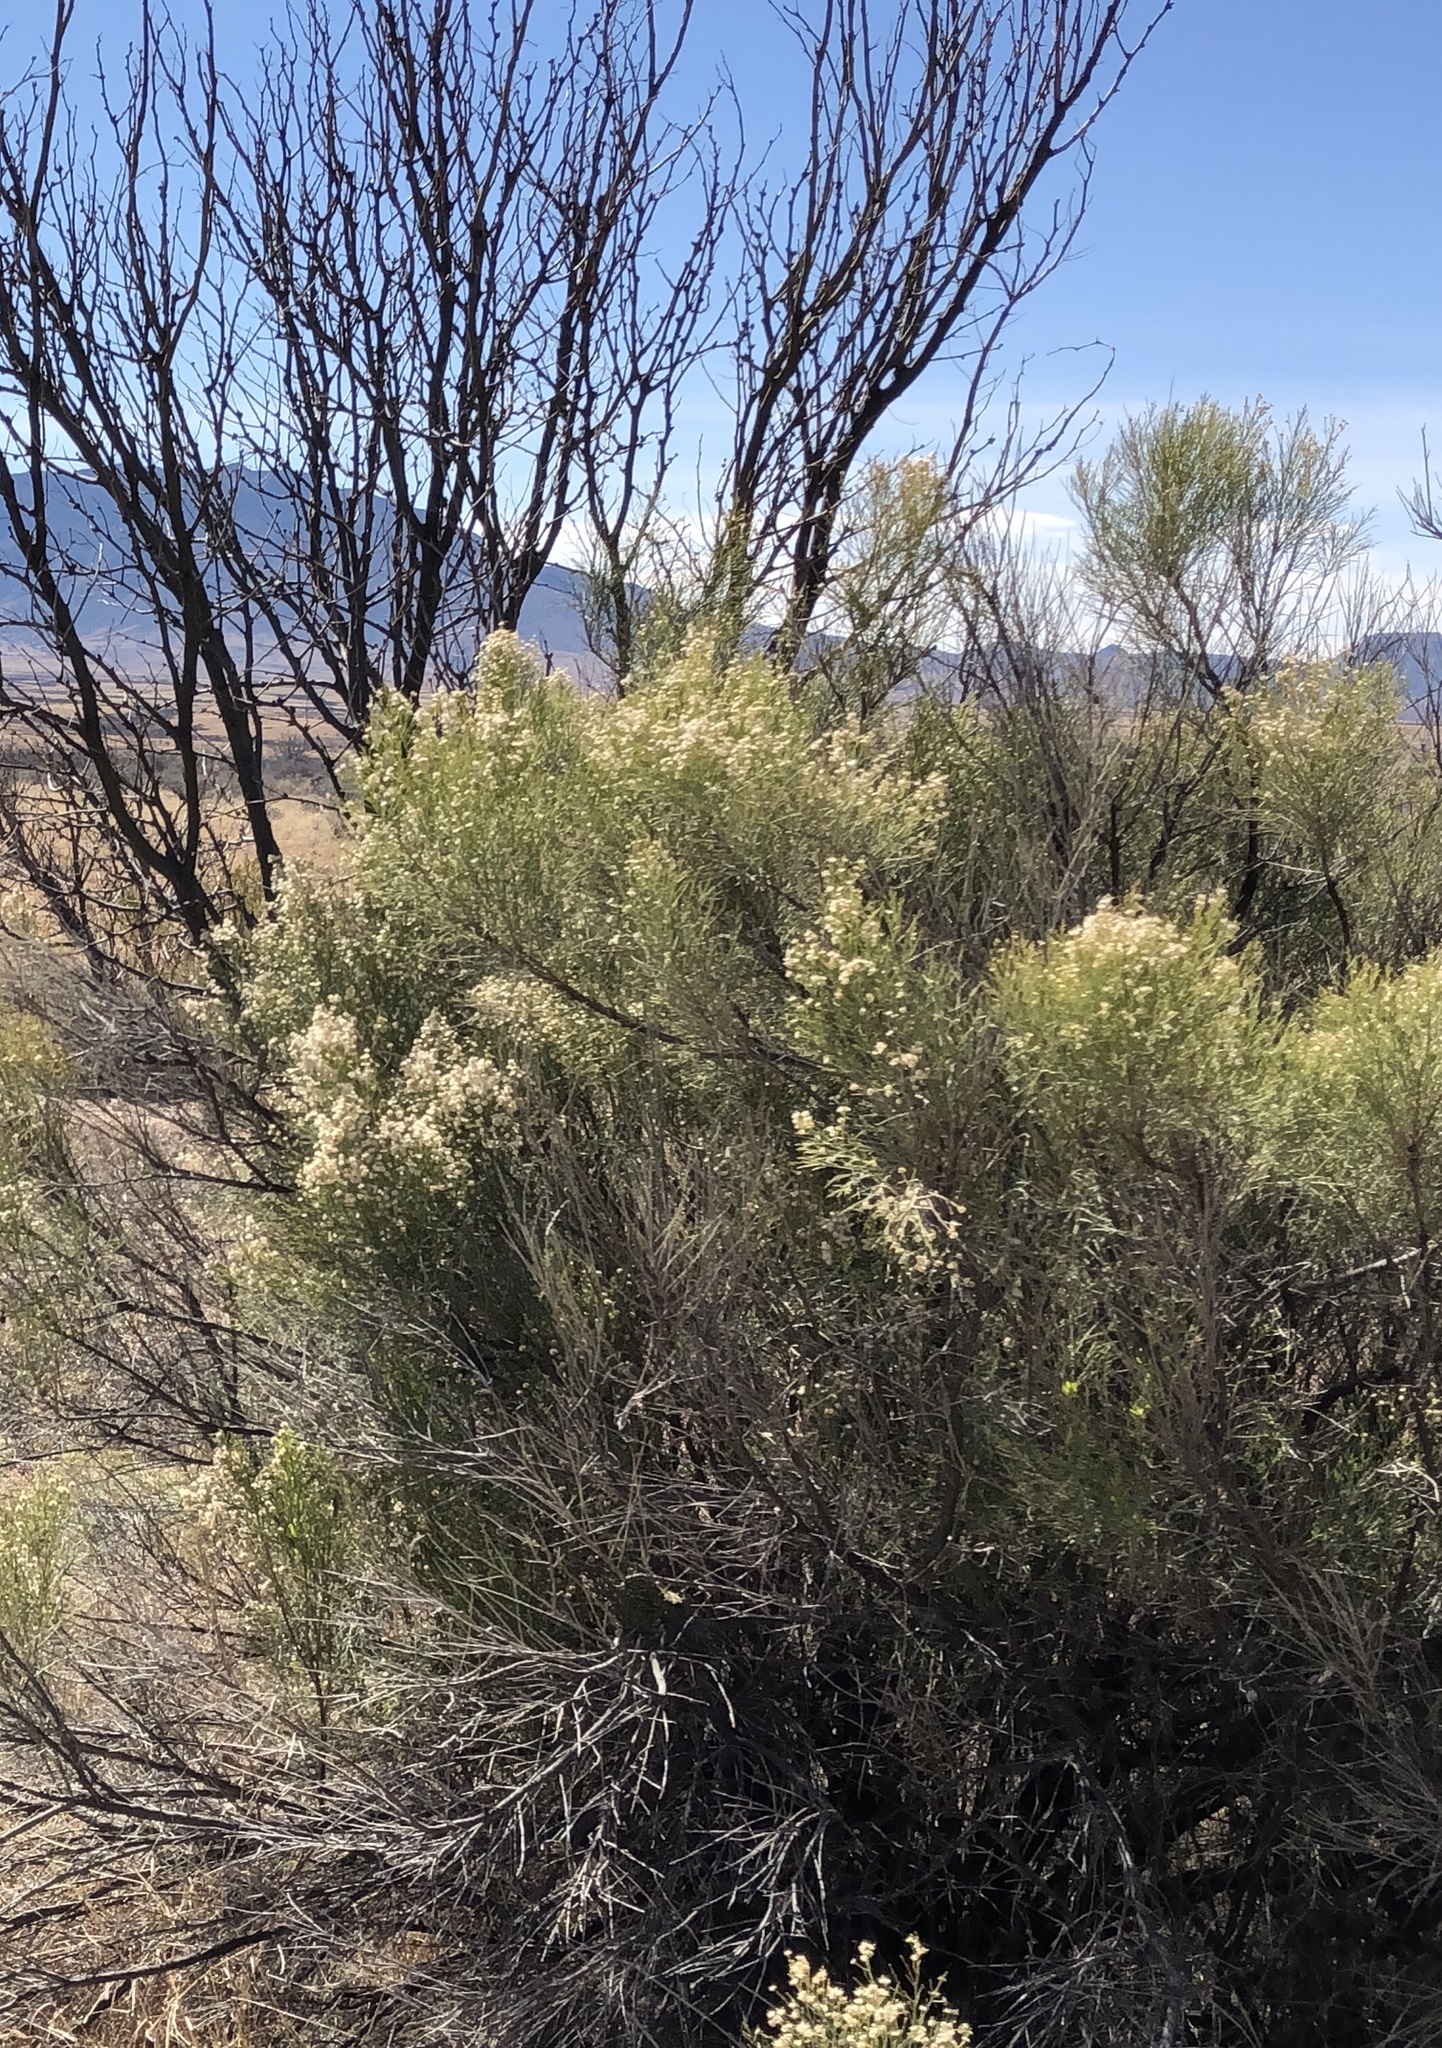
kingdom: Plantae
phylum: Tracheophyta
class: Magnoliopsida
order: Asterales
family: Asteraceae
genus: Baccharis
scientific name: Baccharis sarothroides
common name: Desert-broom
